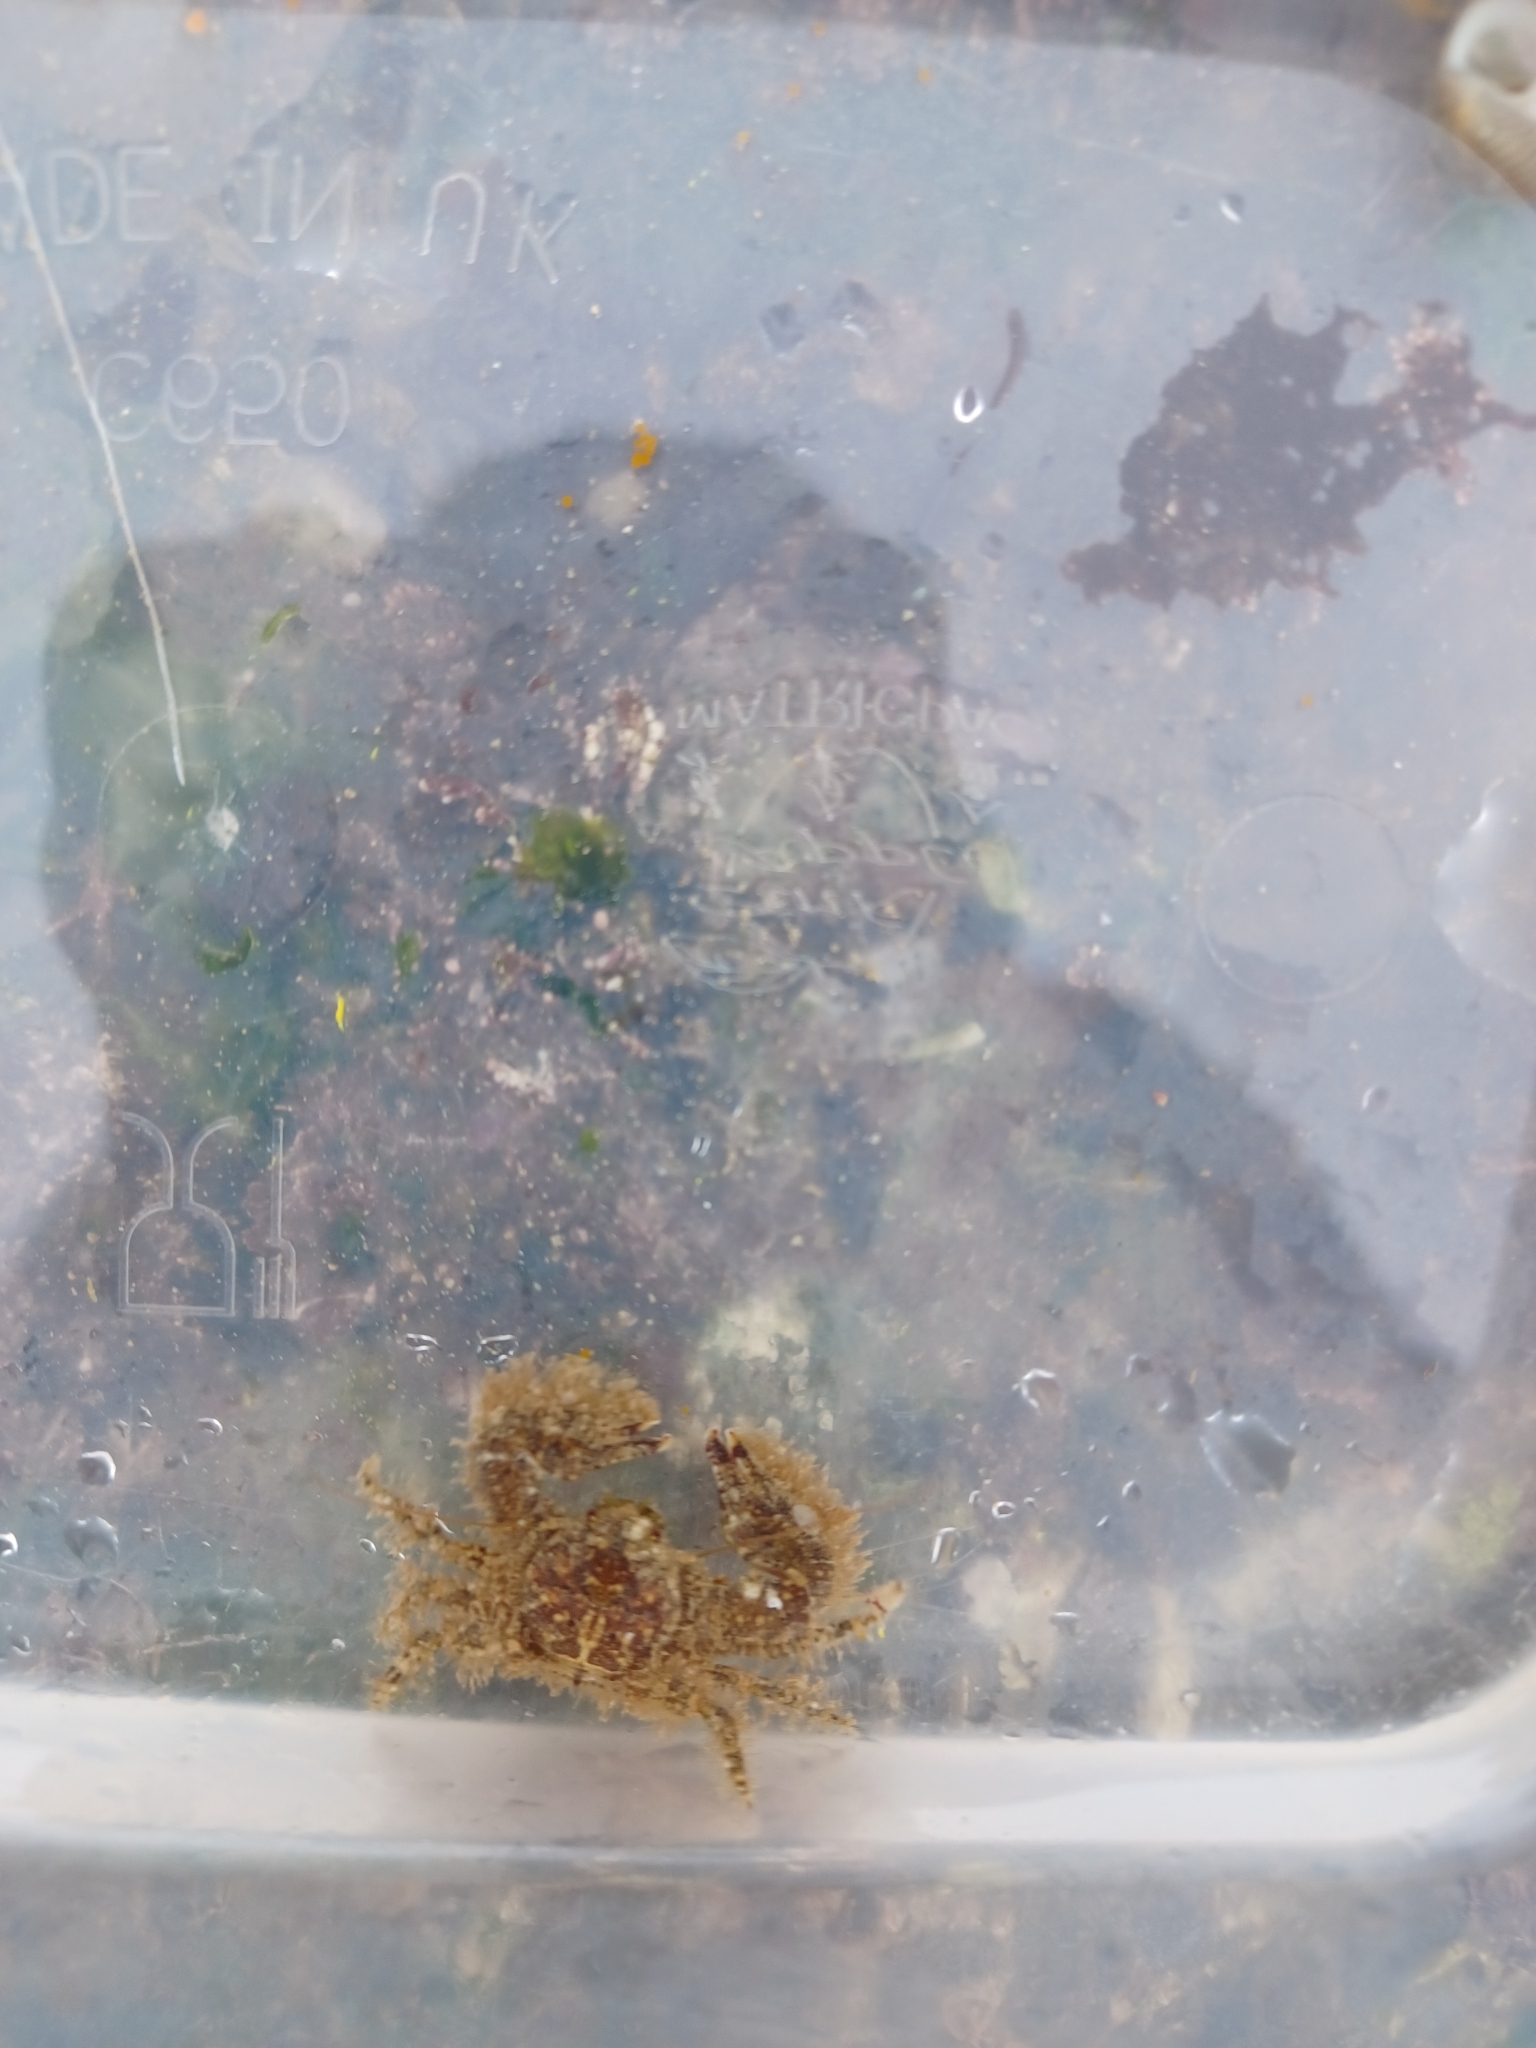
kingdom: Animalia
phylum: Arthropoda
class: Malacostraca
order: Decapoda
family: Porcellanidae
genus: Porcellana
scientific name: Porcellana platycheles
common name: Porcelain crab
